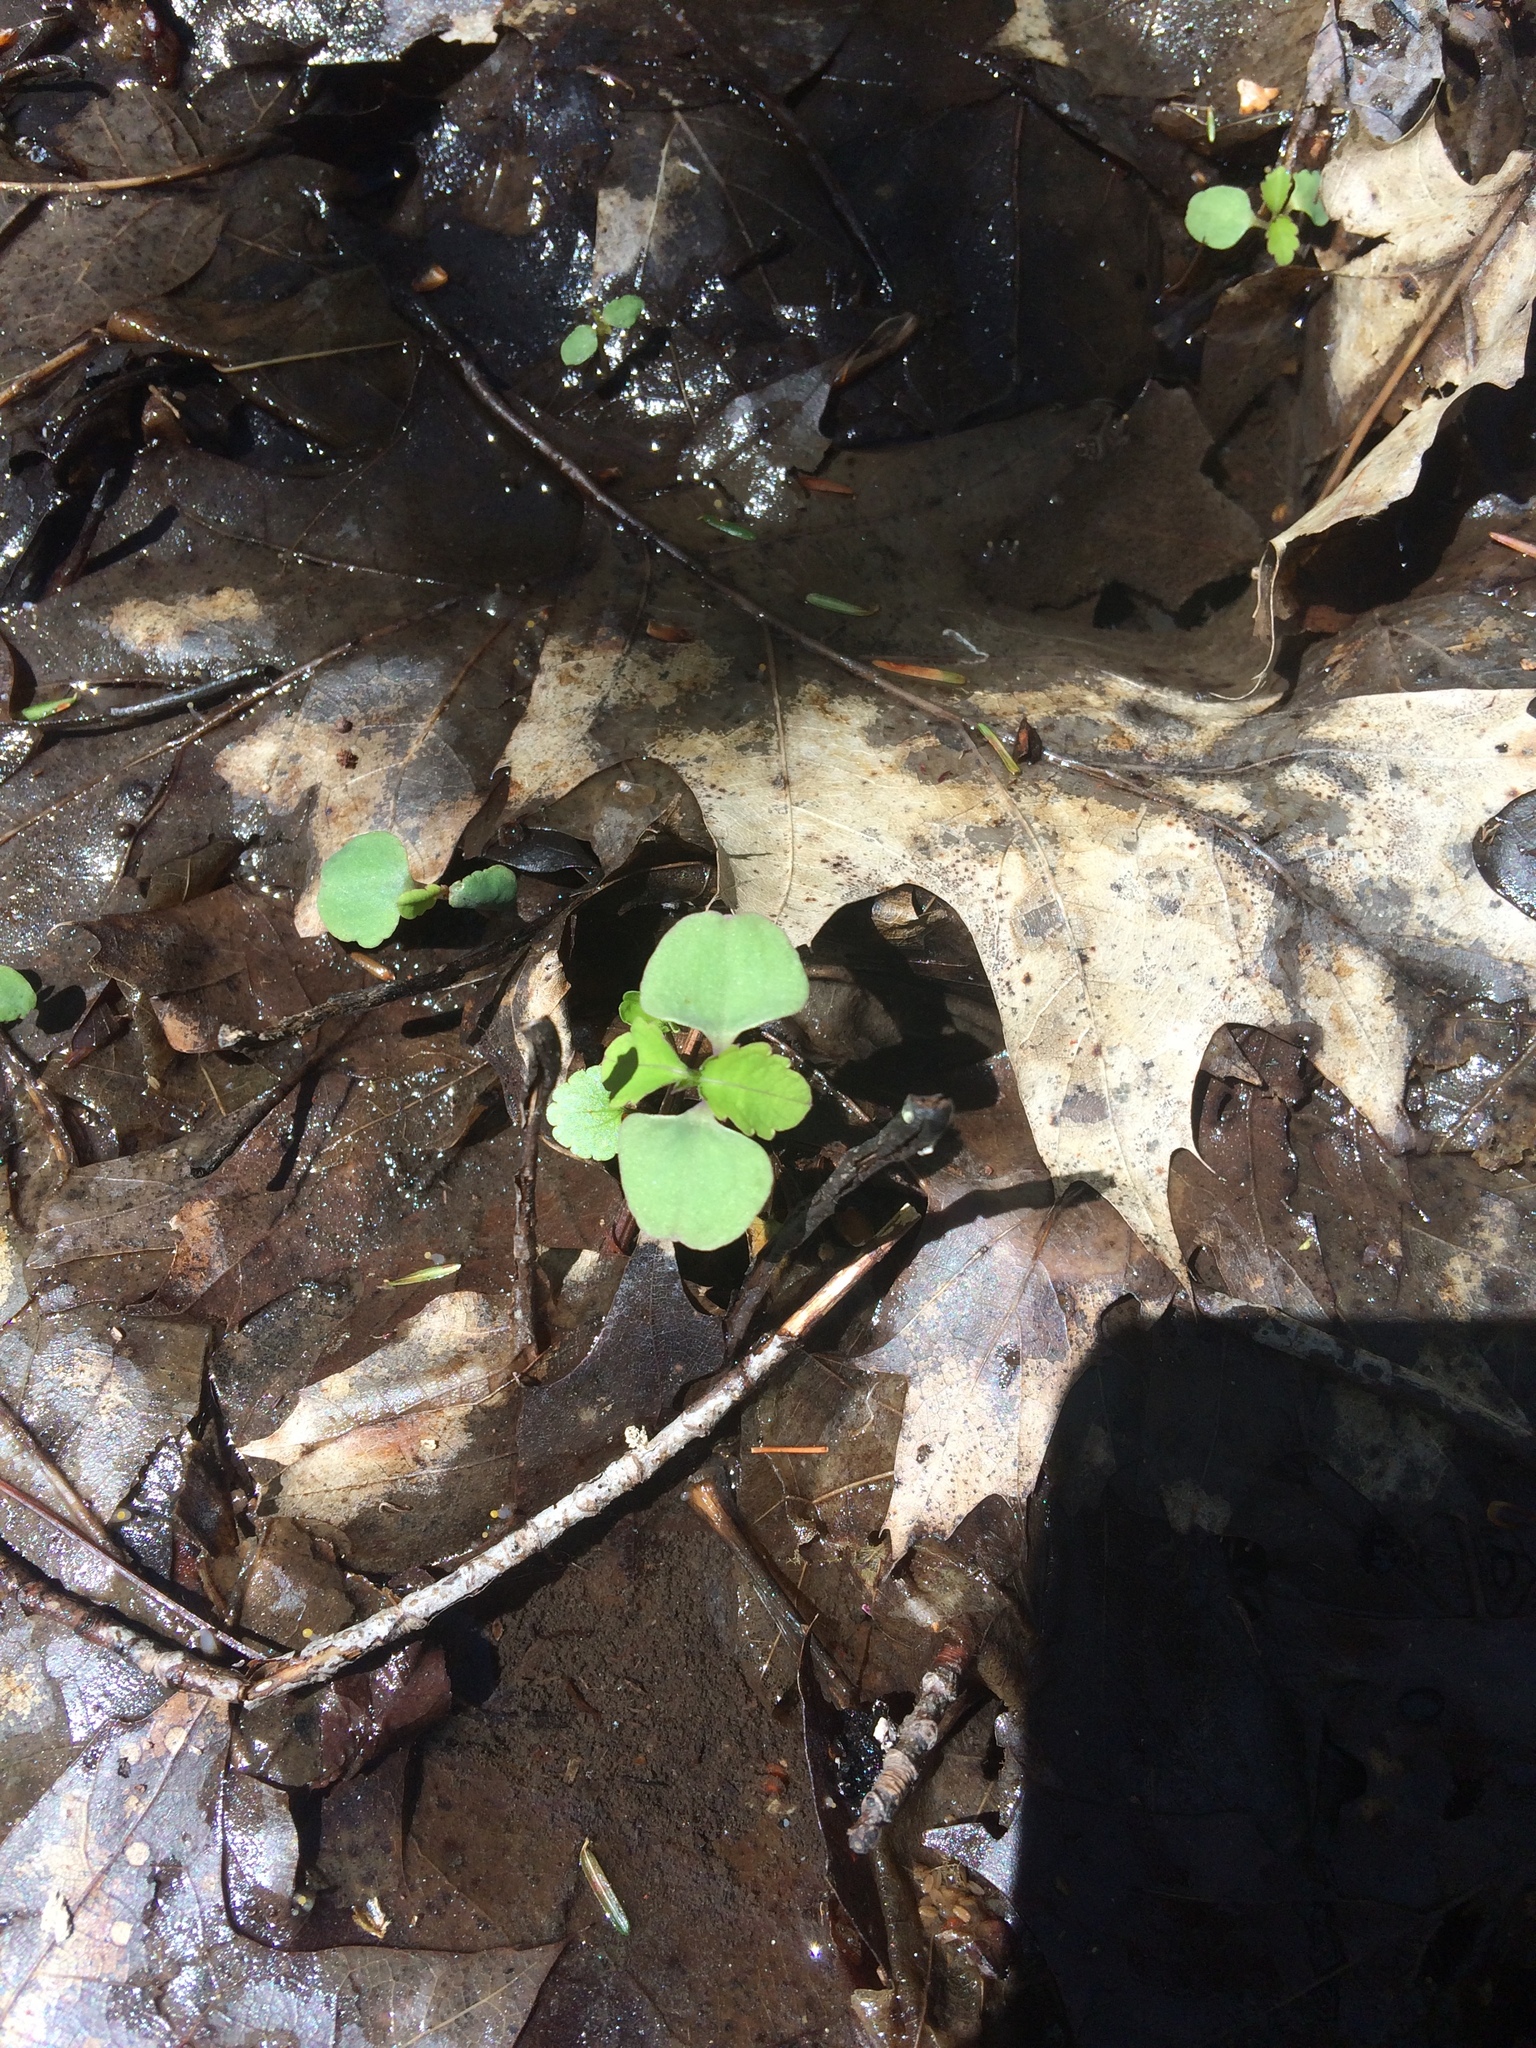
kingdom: Plantae
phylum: Tracheophyta
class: Magnoliopsida
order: Ericales
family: Balsaminaceae
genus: Impatiens
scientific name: Impatiens capensis
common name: Orange balsam
